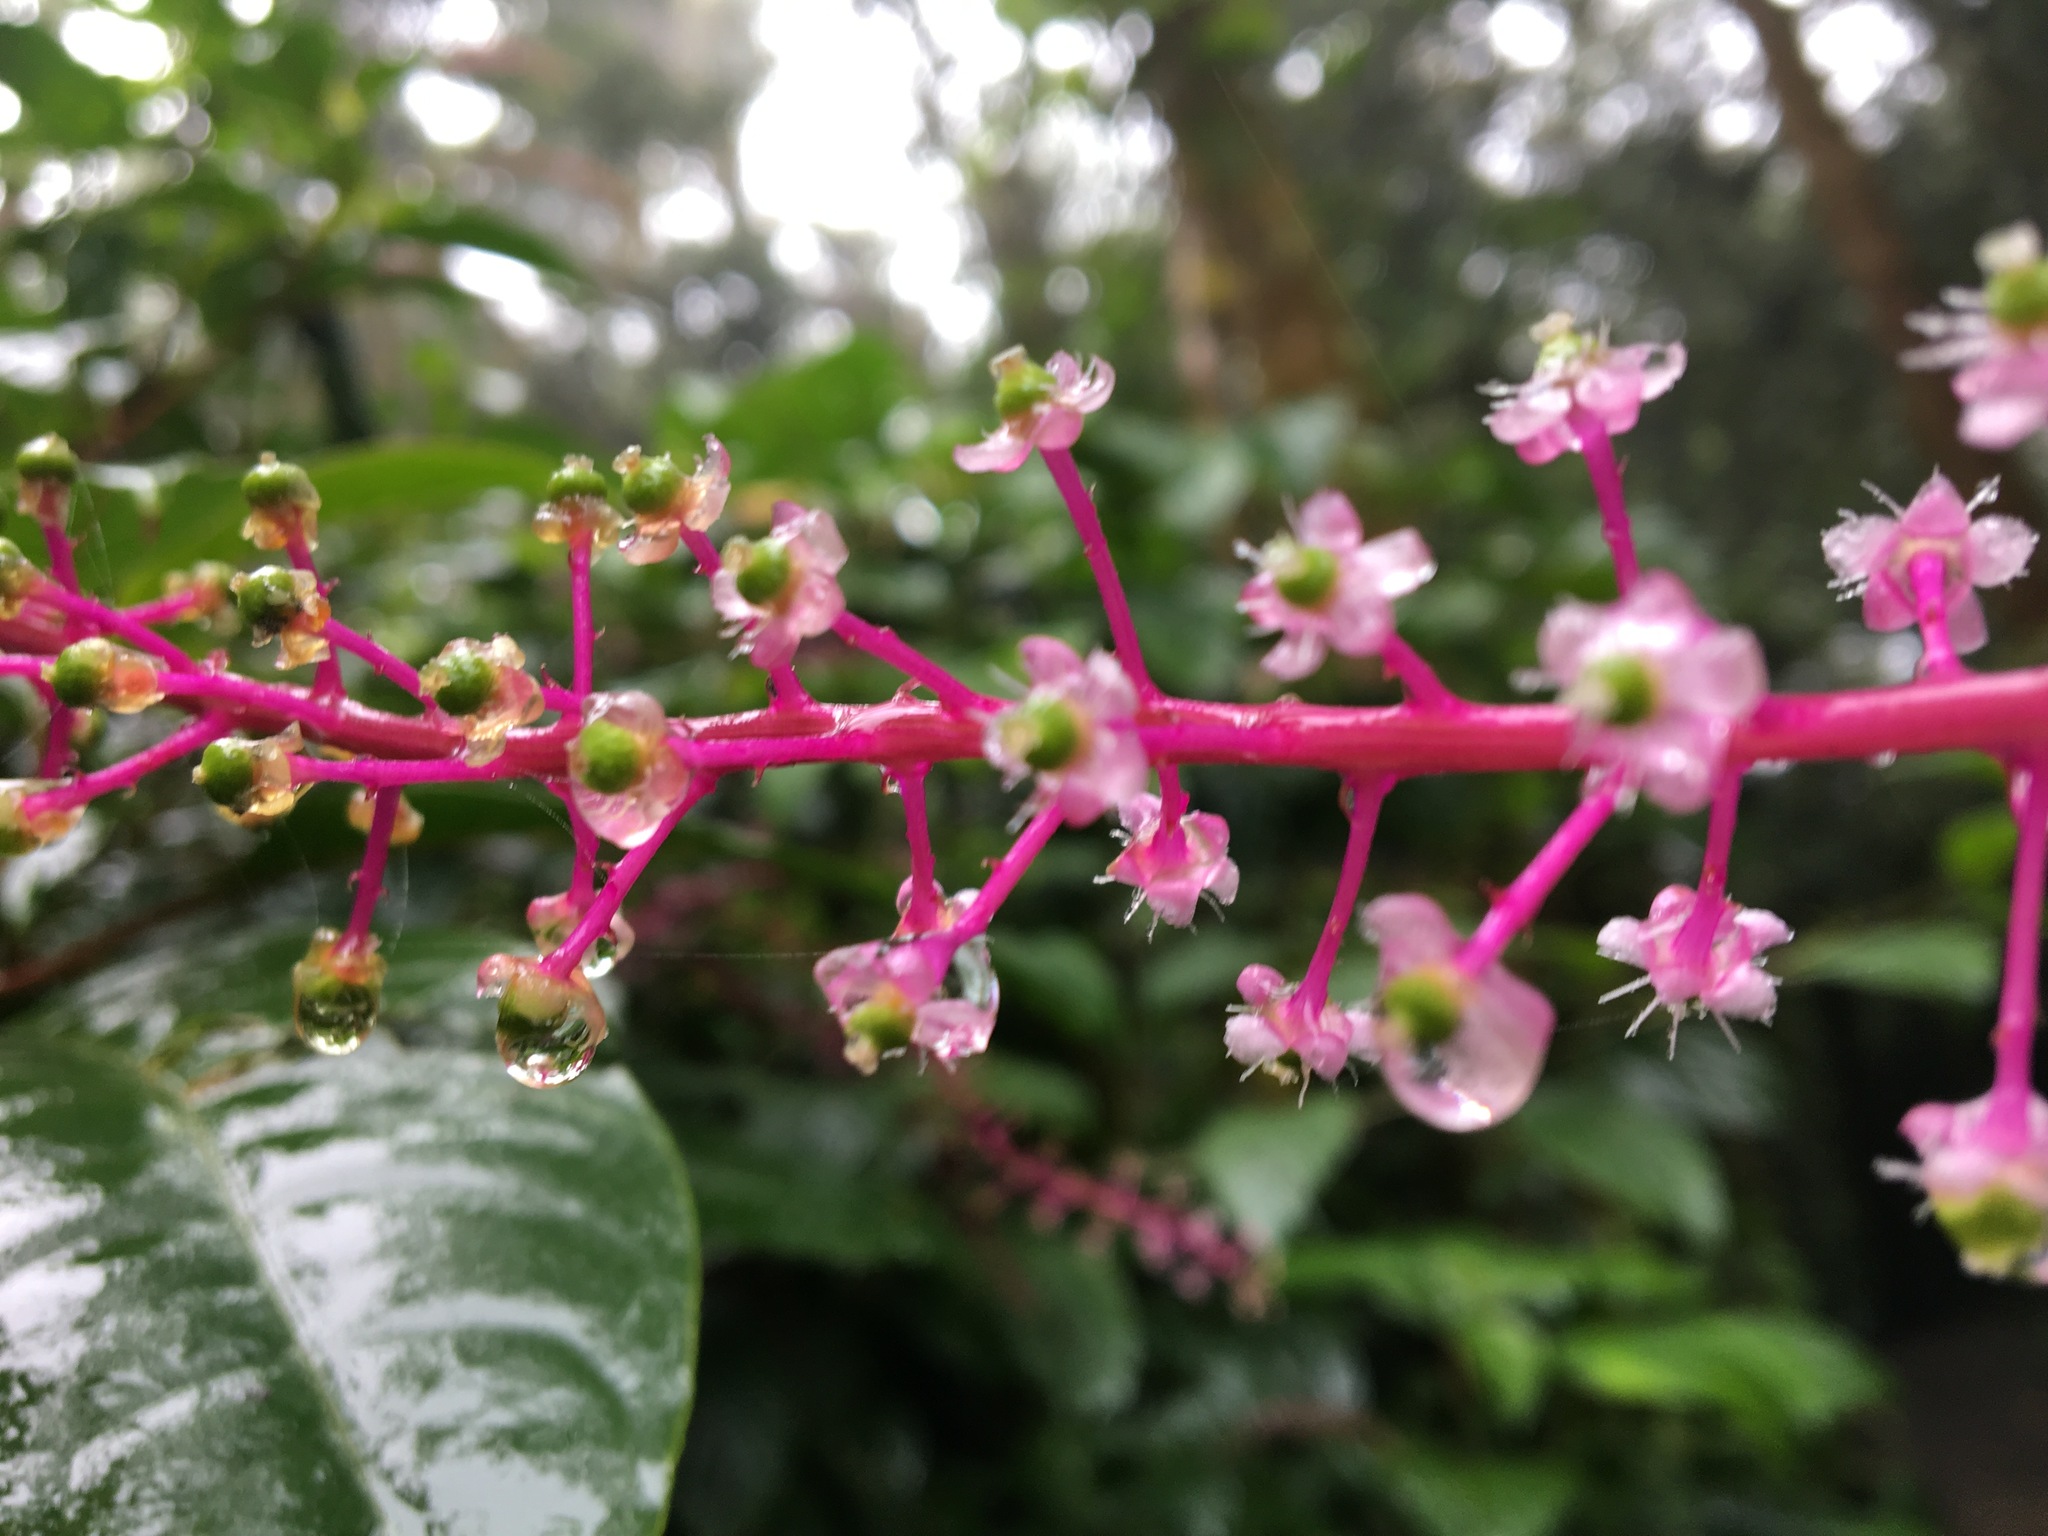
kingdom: Plantae
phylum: Tracheophyta
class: Magnoliopsida
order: Caryophyllales
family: Phytolaccaceae
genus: Phytolacca
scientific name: Phytolacca rivinoides
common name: Venezuelan pokeweed
